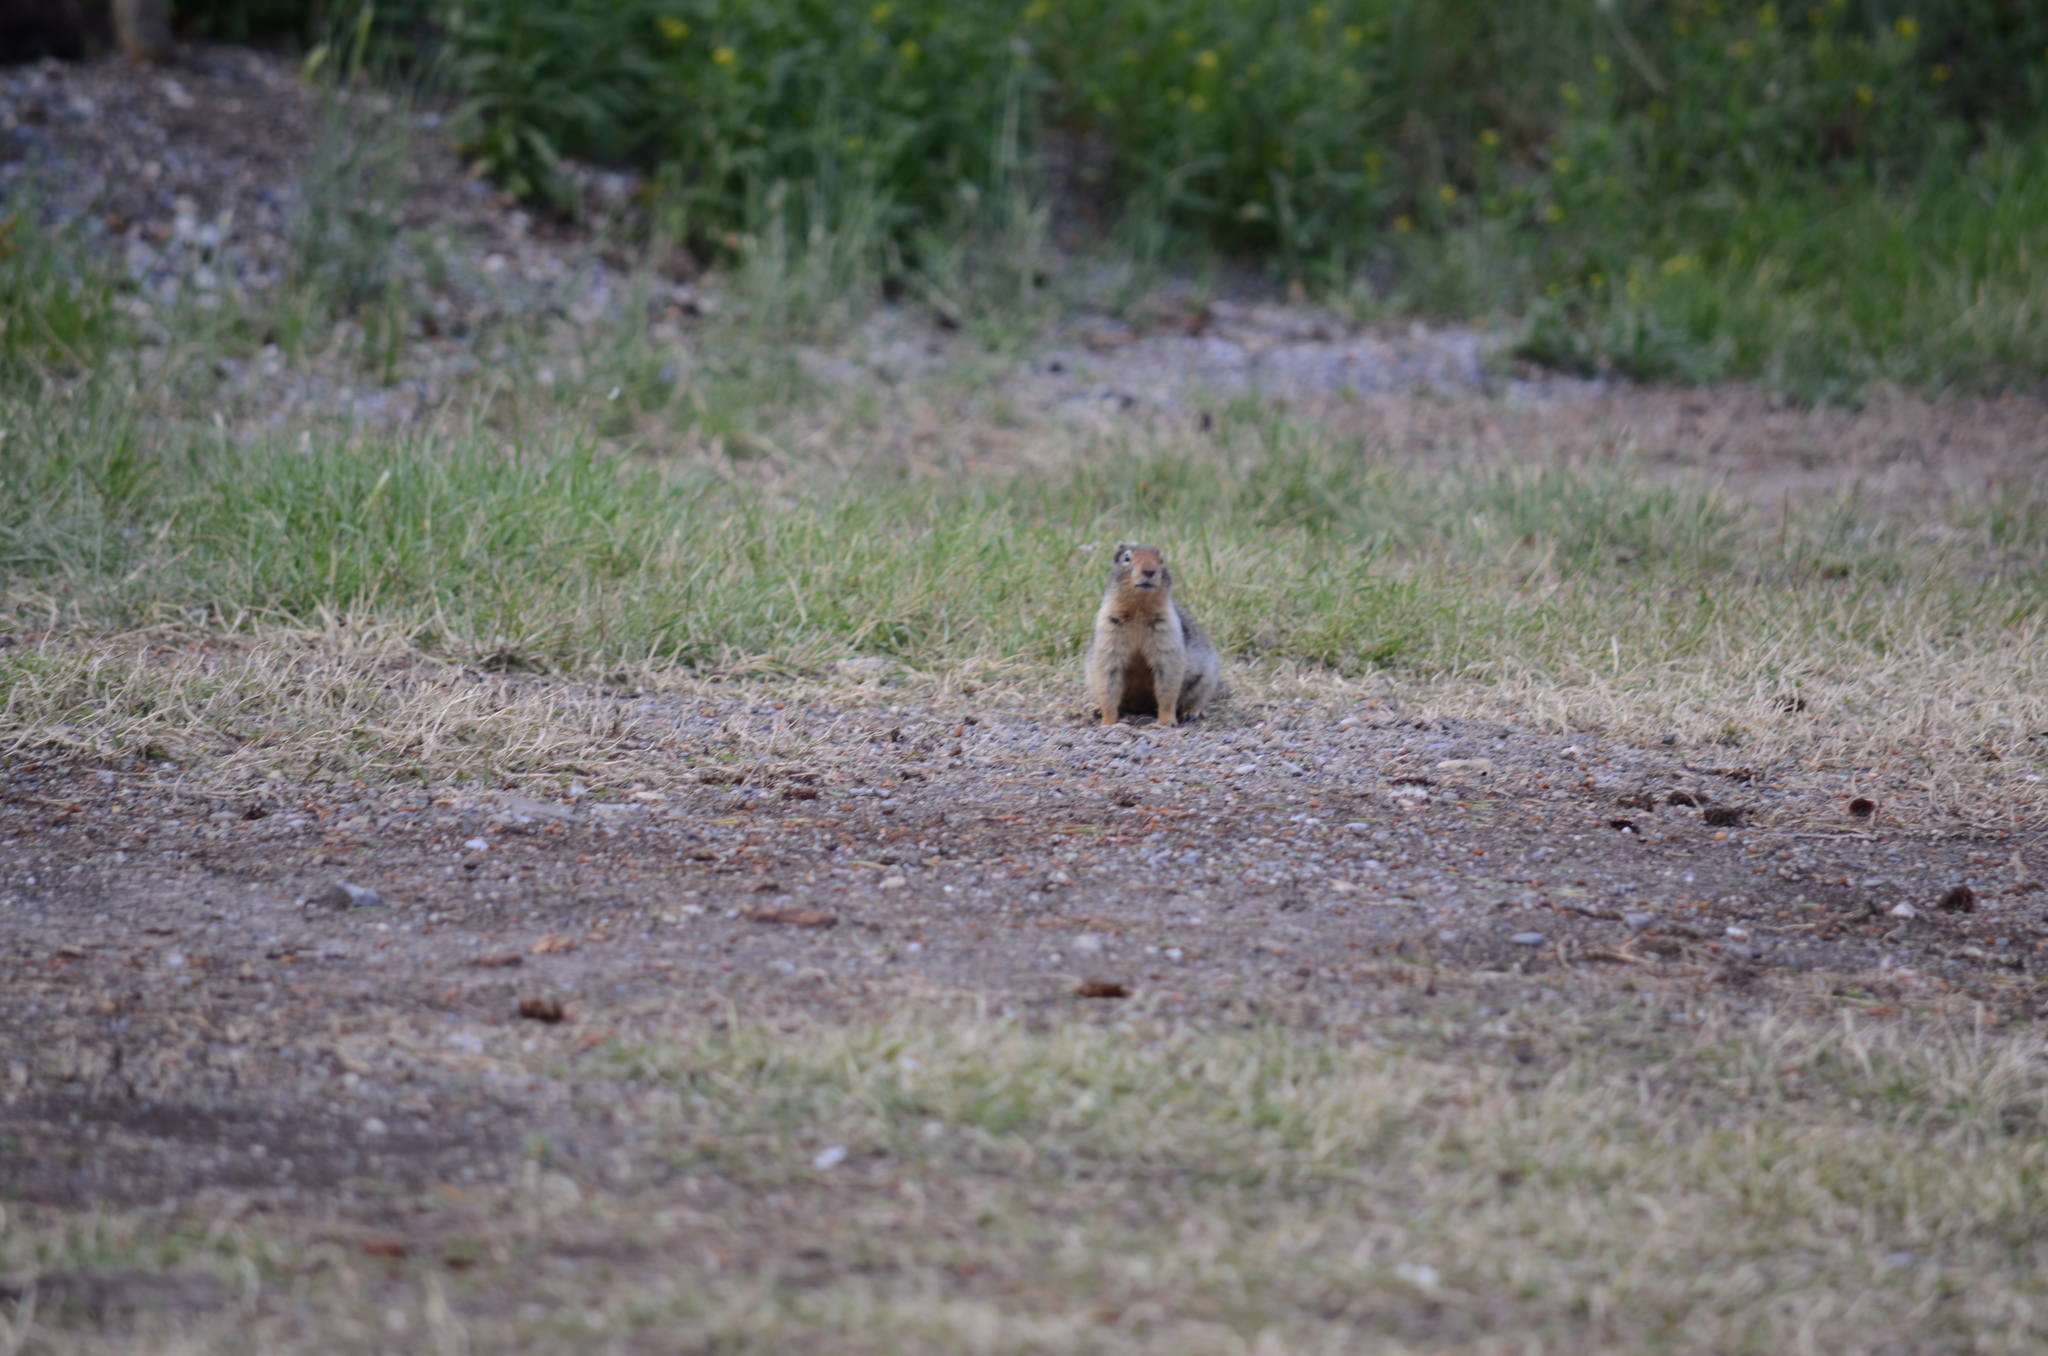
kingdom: Animalia
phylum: Chordata
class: Mammalia
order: Rodentia
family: Sciuridae
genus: Urocitellus
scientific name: Urocitellus columbianus
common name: Columbian ground squirrel
